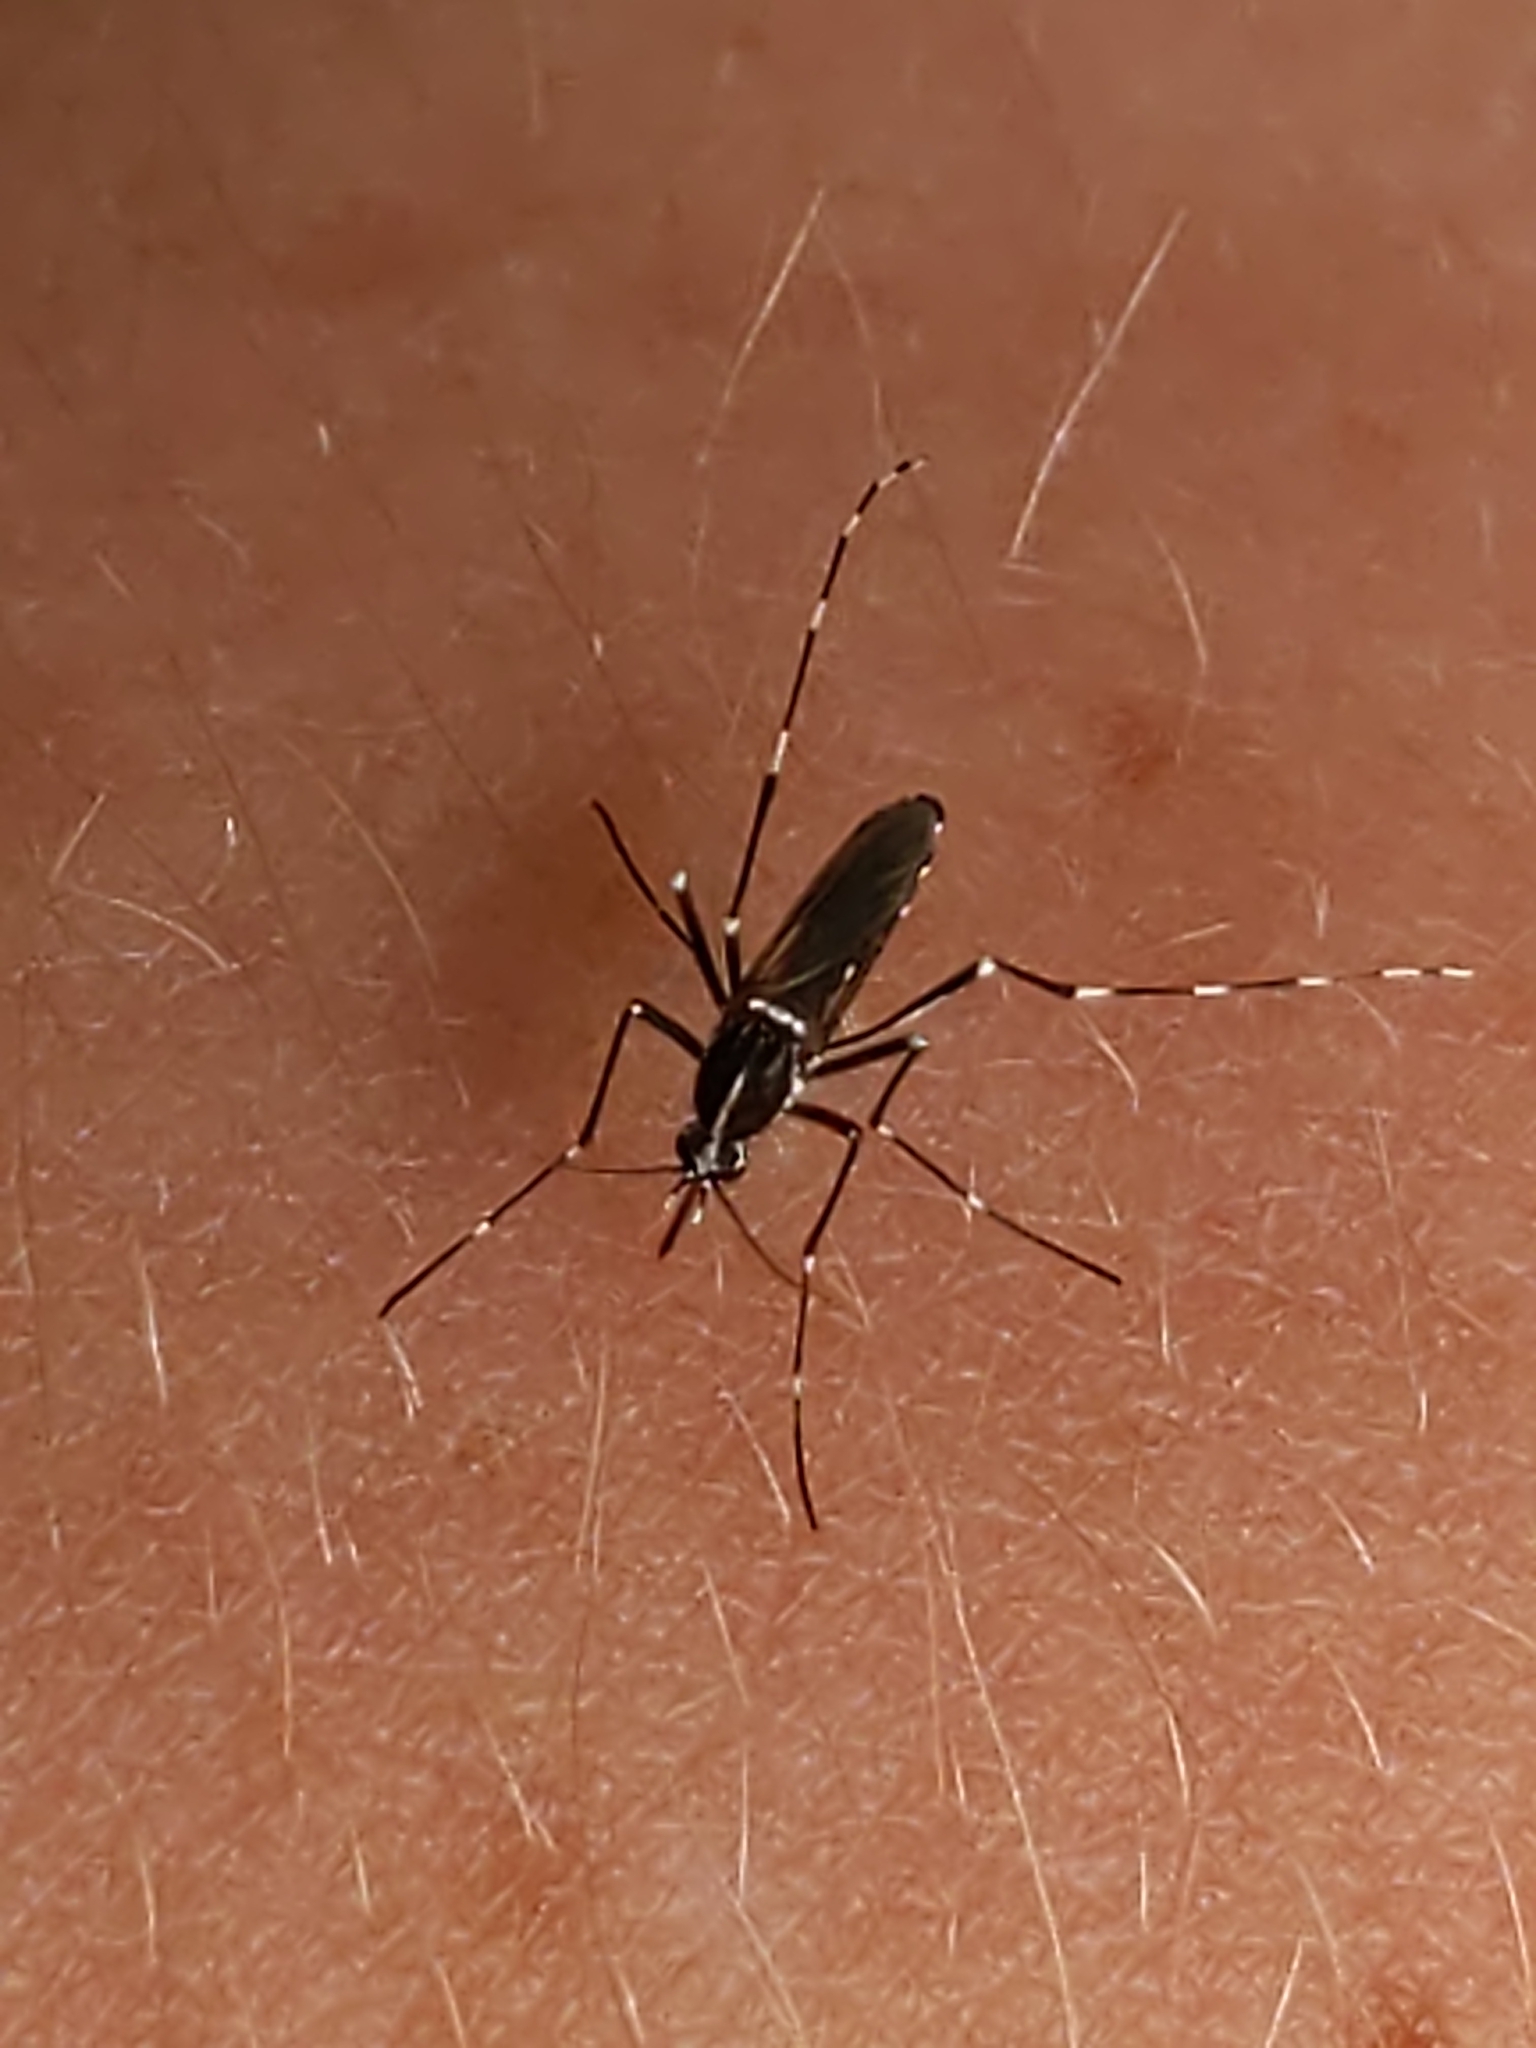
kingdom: Animalia
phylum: Arthropoda
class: Insecta
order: Diptera
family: Culicidae
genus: Aedes
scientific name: Aedes albopictus
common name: Tiger mosquito
